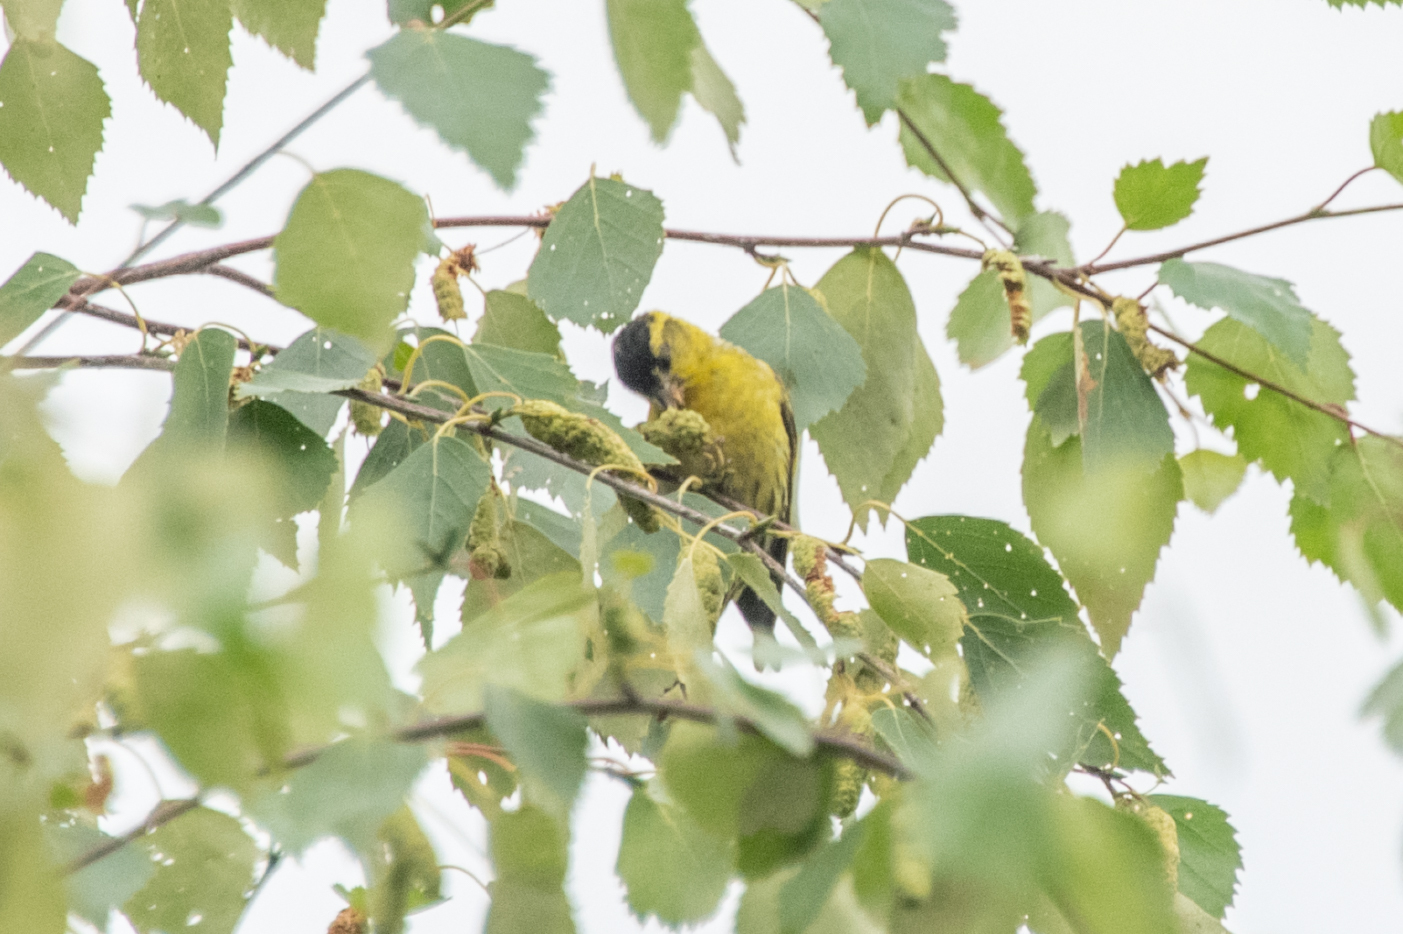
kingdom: Animalia
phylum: Chordata
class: Aves
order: Passeriformes
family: Fringillidae
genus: Spinus
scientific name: Spinus spinus
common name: Eurasian siskin
